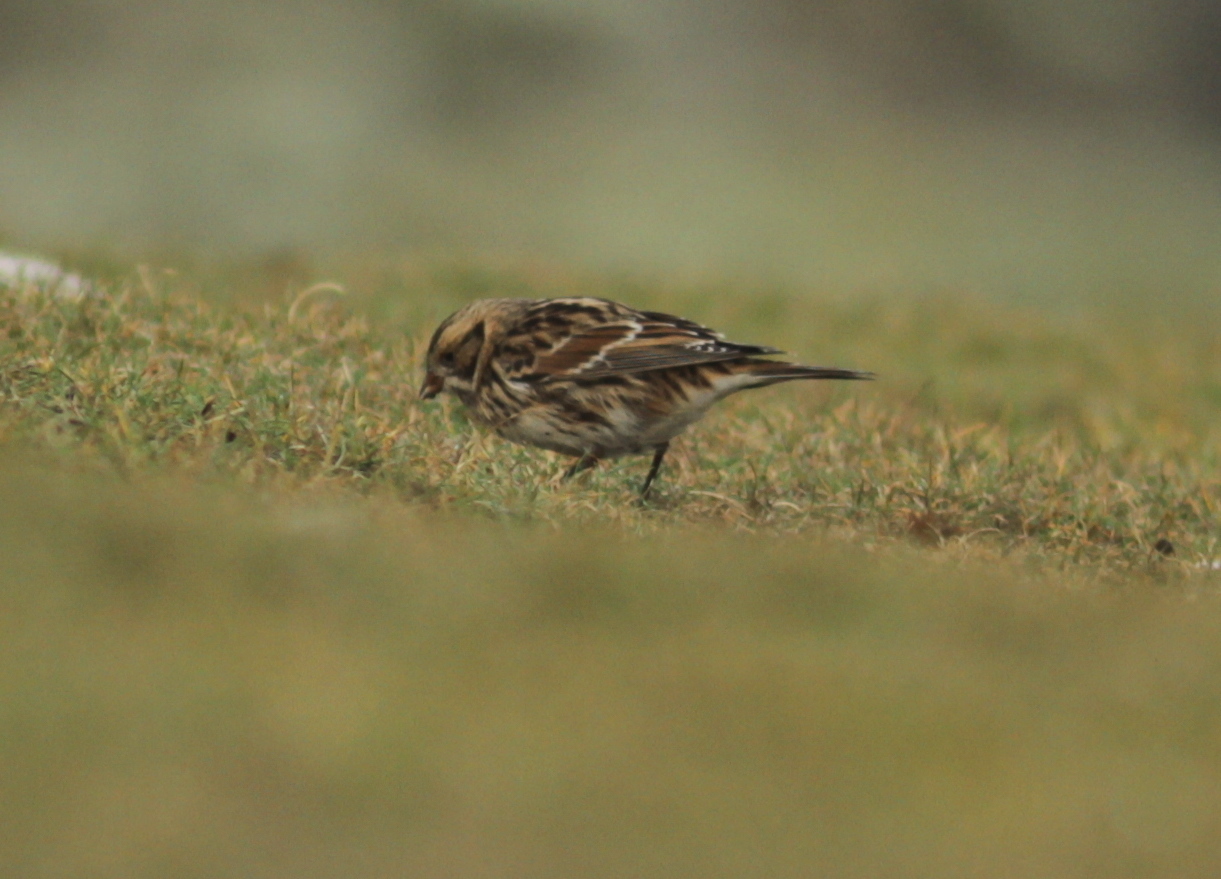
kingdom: Animalia
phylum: Chordata
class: Aves
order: Passeriformes
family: Calcariidae
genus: Calcarius
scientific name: Calcarius lapponicus
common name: Lapland longspur
